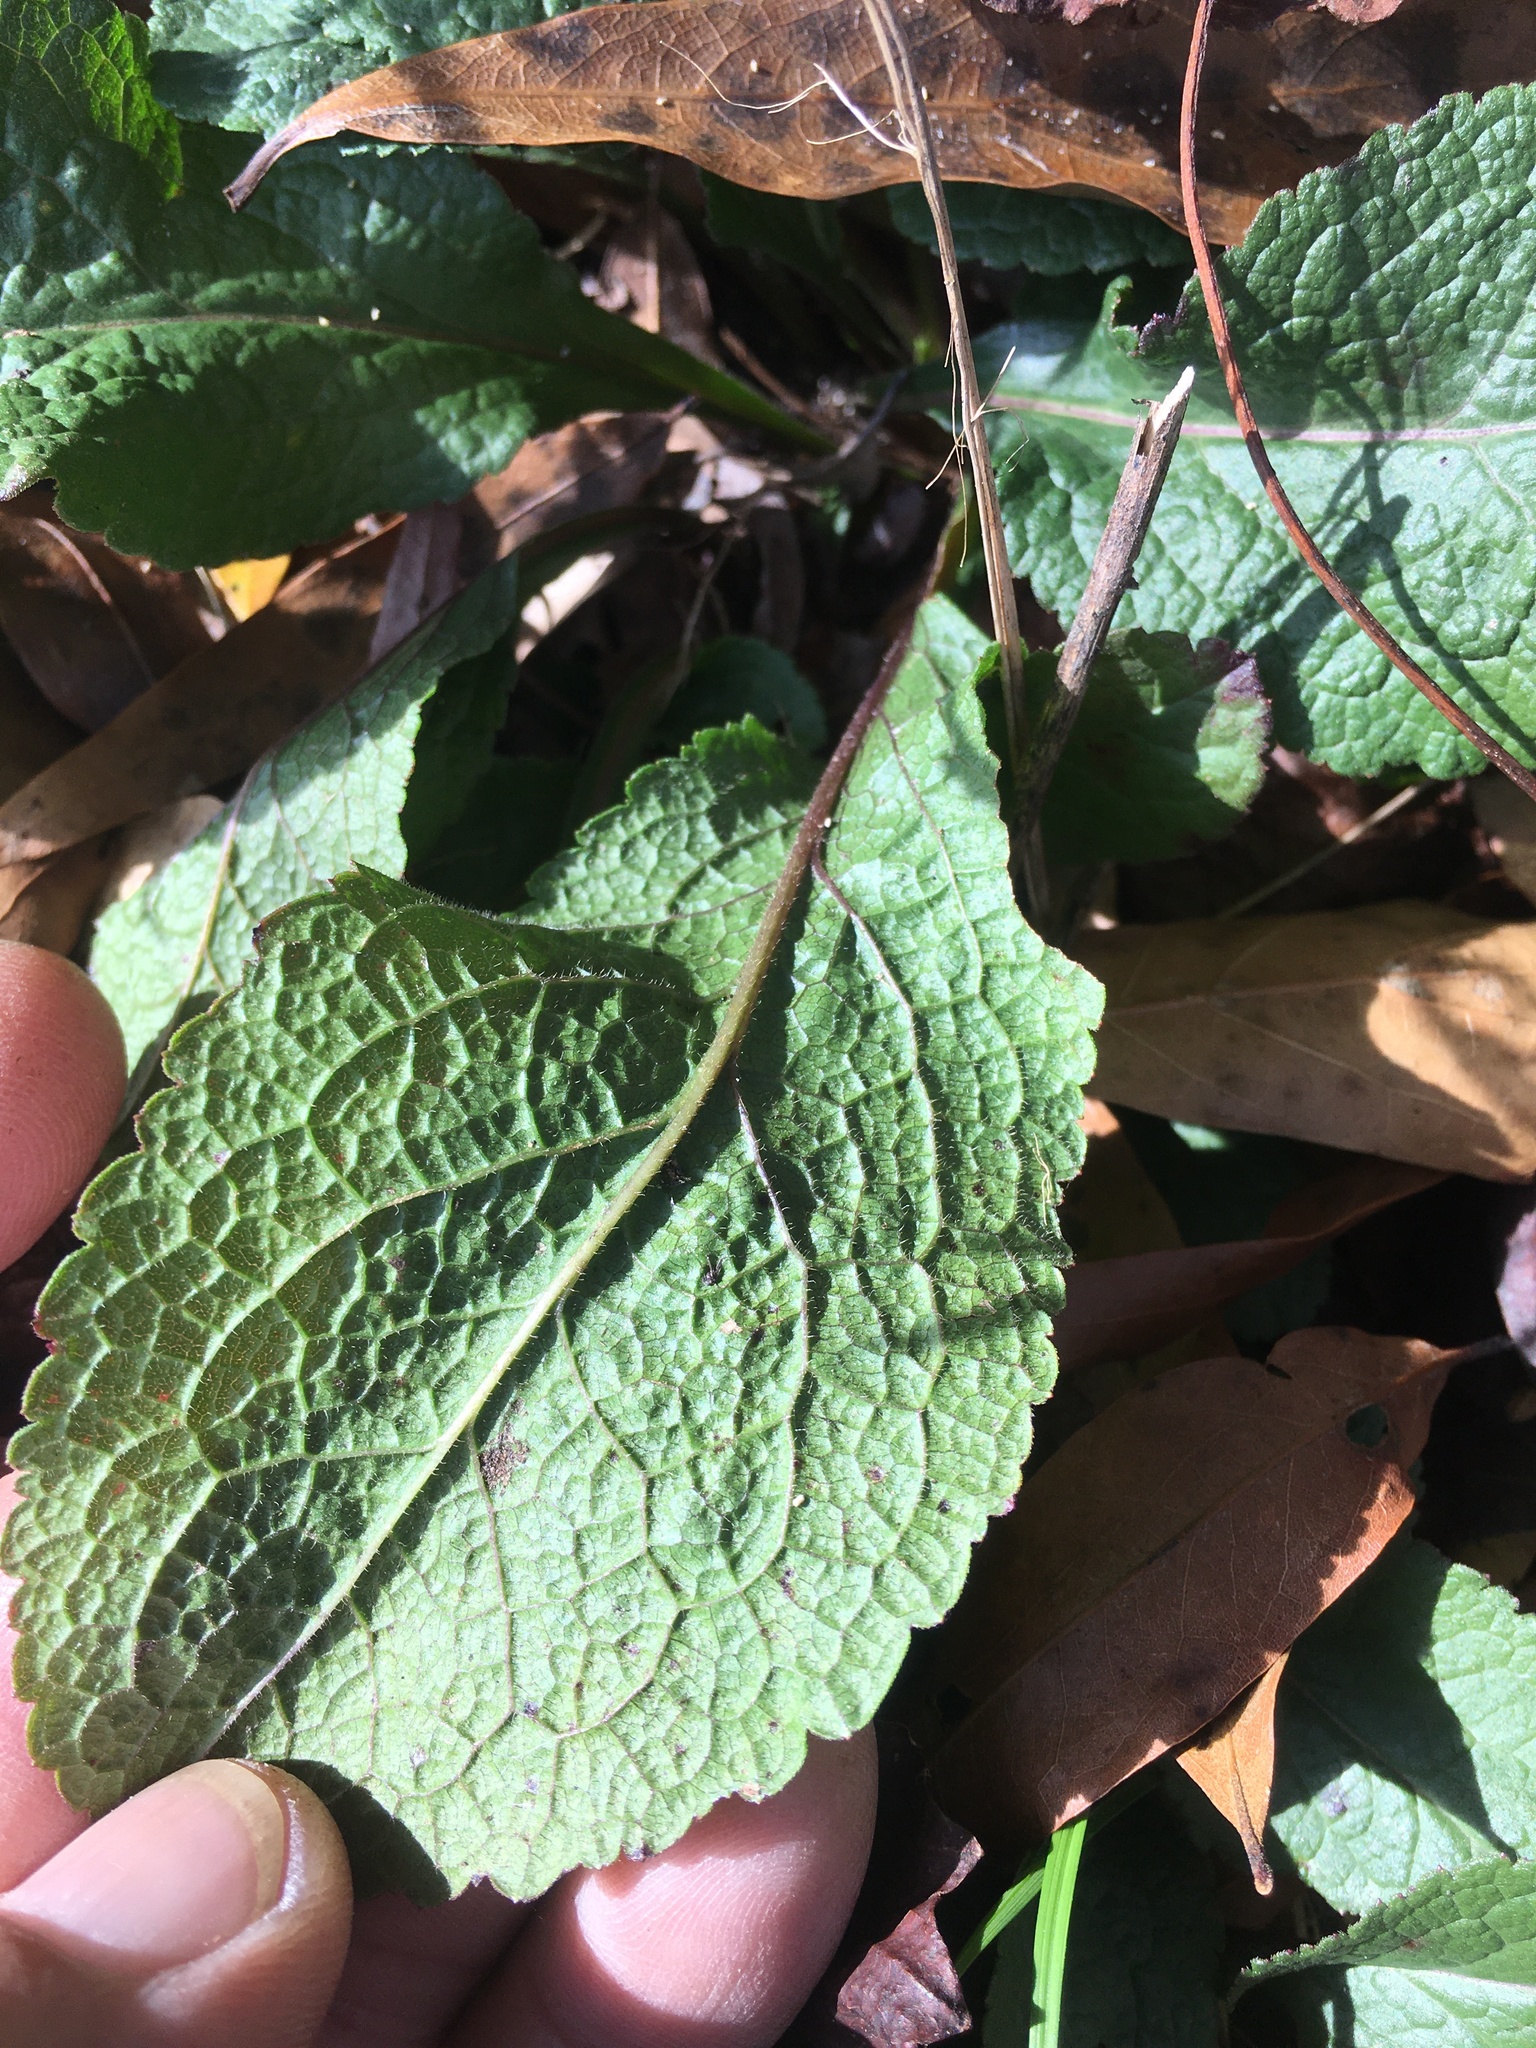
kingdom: Plantae
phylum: Tracheophyta
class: Magnoliopsida
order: Asterales
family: Asteraceae
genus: Solidago
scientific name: Solidago rugosa
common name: Rough-stemmed goldenrod
